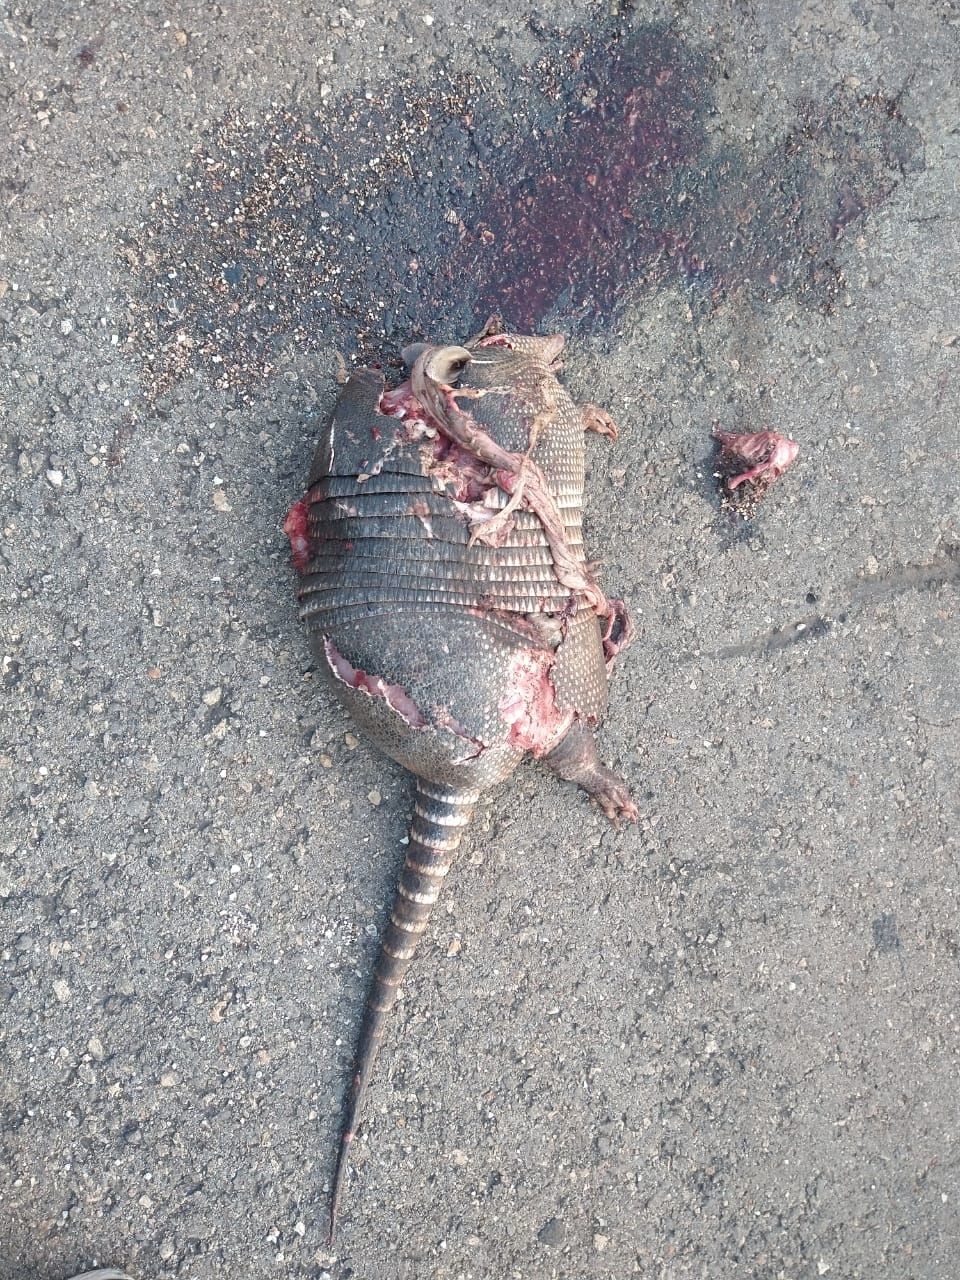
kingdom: Animalia
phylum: Chordata
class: Mammalia
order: Cingulata
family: Dasypodidae
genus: Dasypus
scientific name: Dasypus novemcinctus
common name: Nine-banded armadillo
